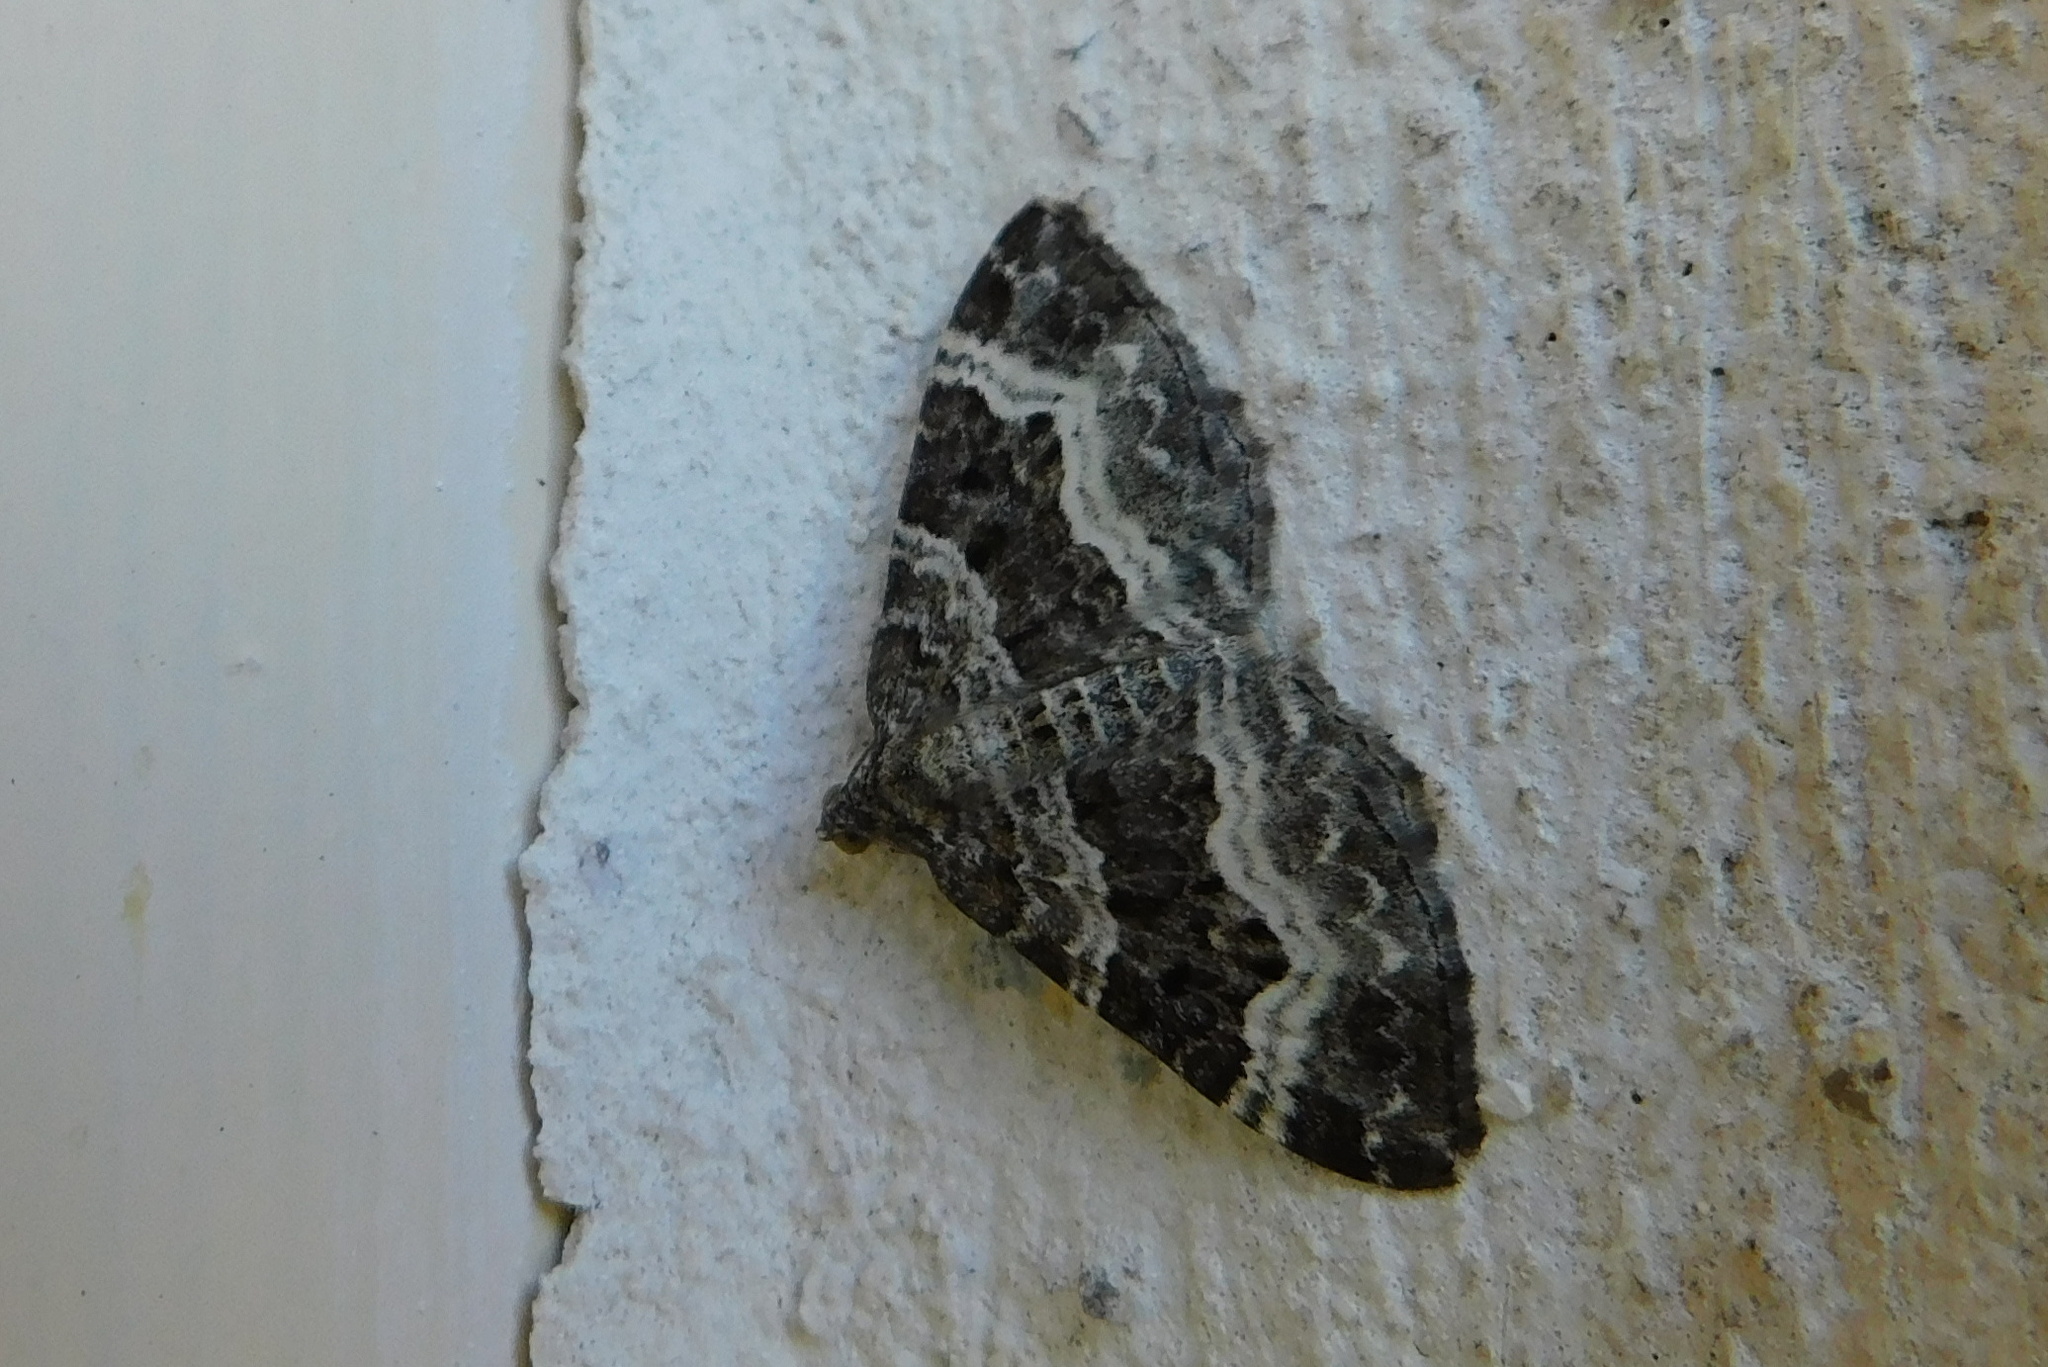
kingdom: Animalia
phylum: Arthropoda
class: Insecta
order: Lepidoptera
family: Geometridae
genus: Epirrhoe
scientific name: Epirrhoe alternata
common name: Common carpet
